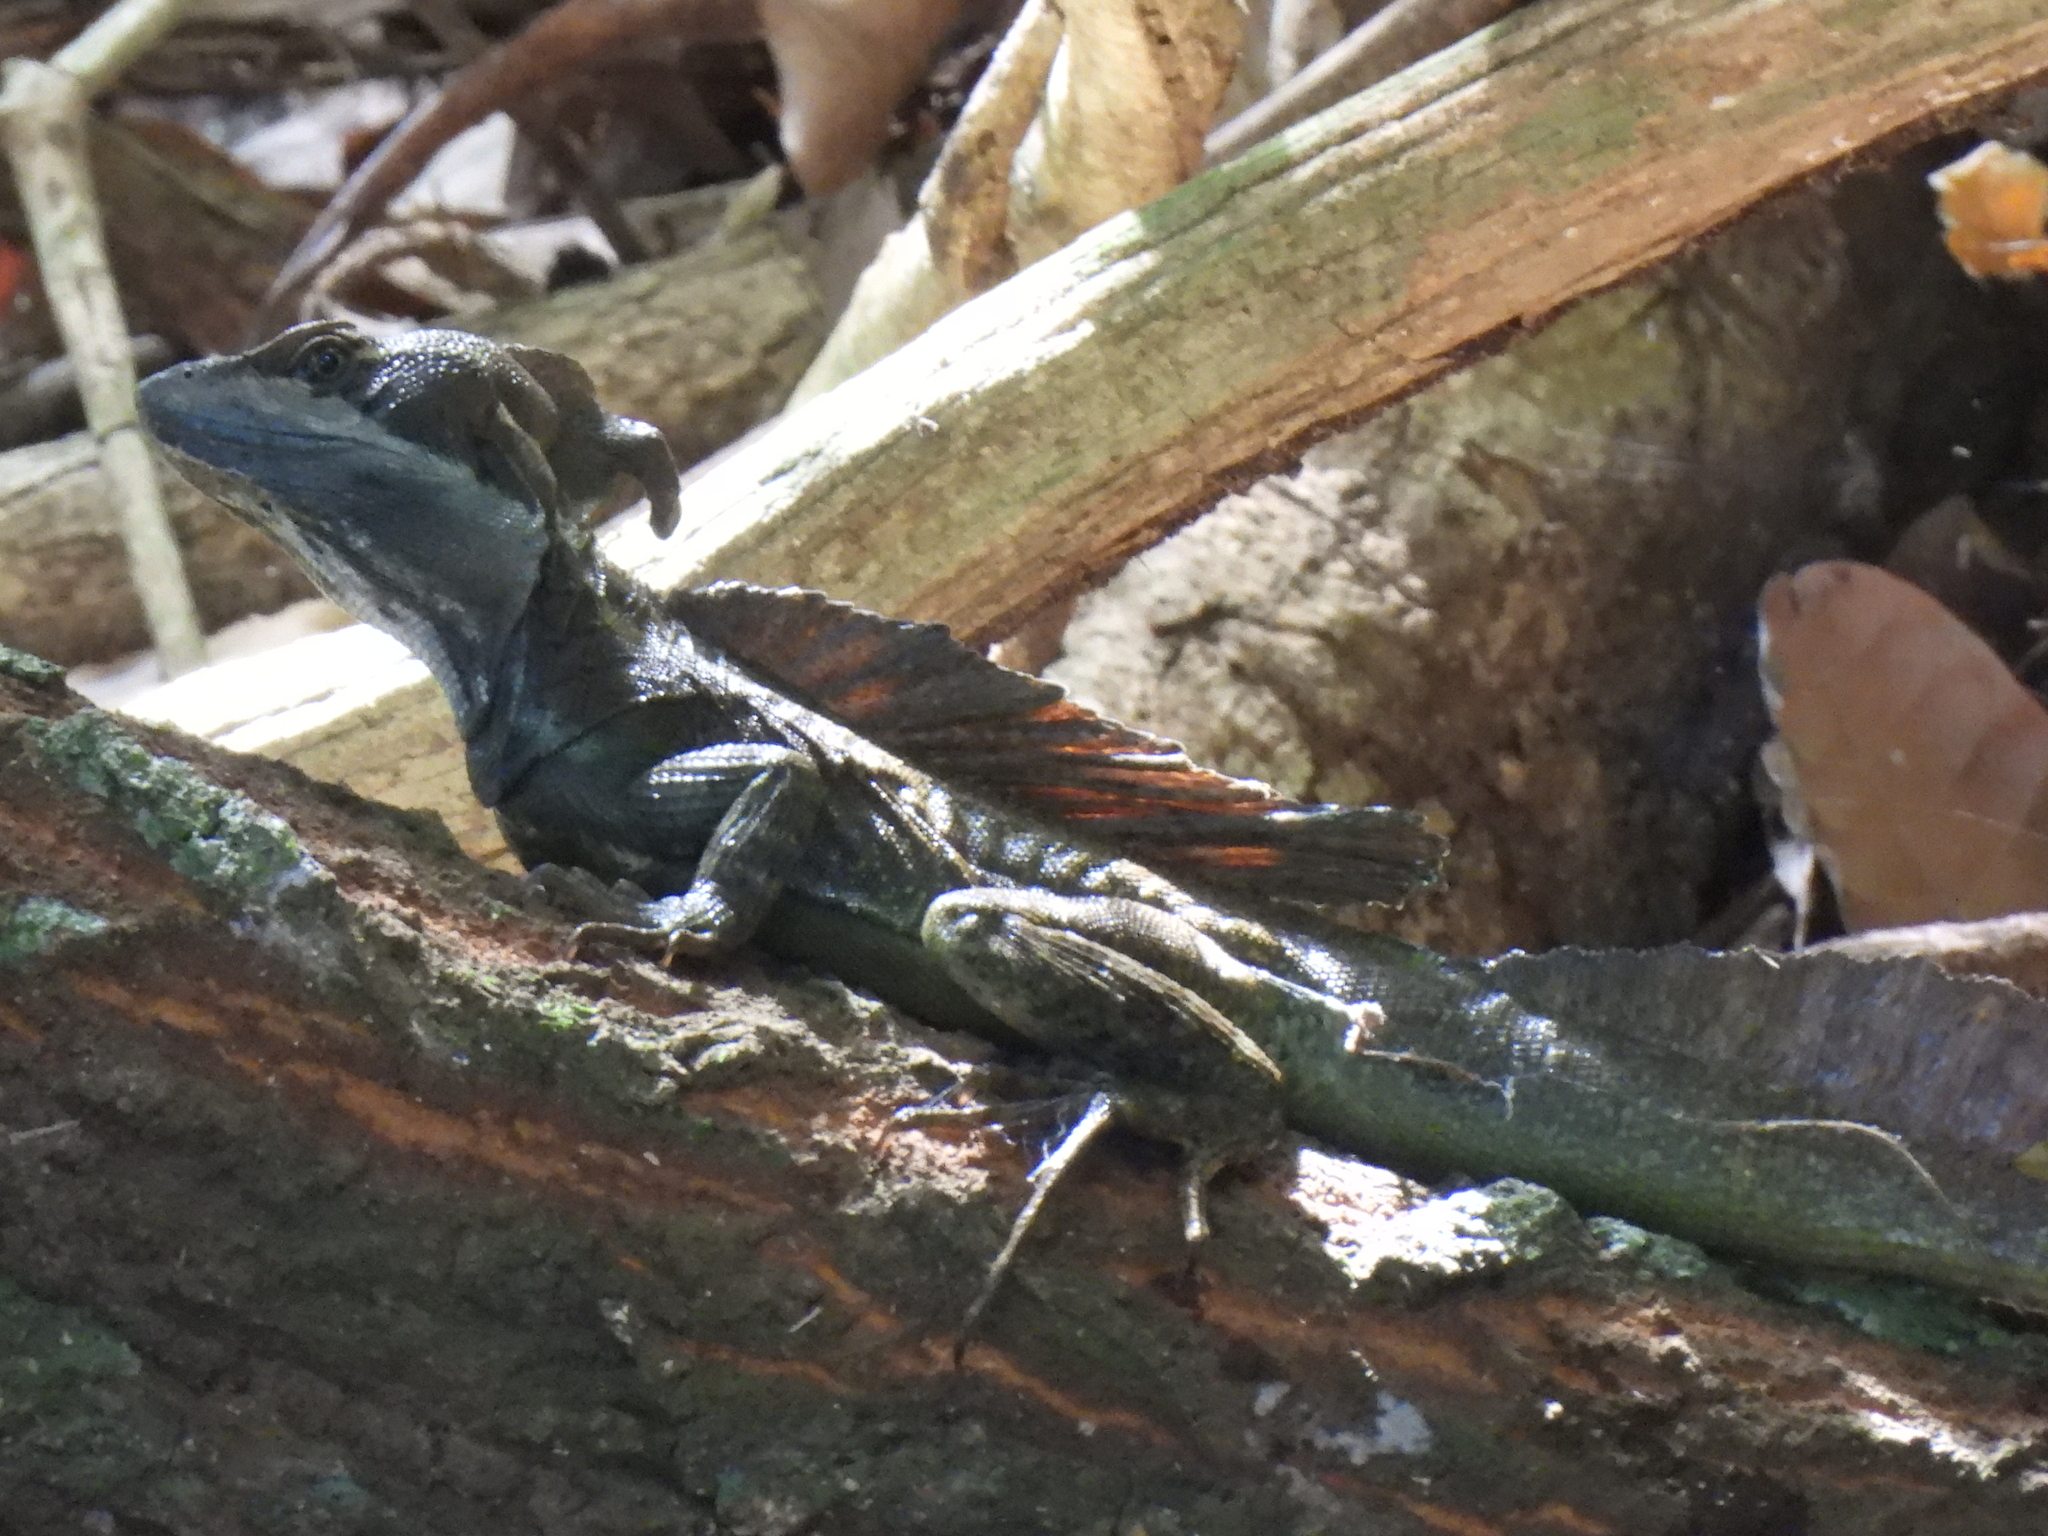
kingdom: Animalia
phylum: Chordata
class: Squamata
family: Corytophanidae
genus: Basiliscus
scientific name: Basiliscus basiliscus
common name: Common basilisk
